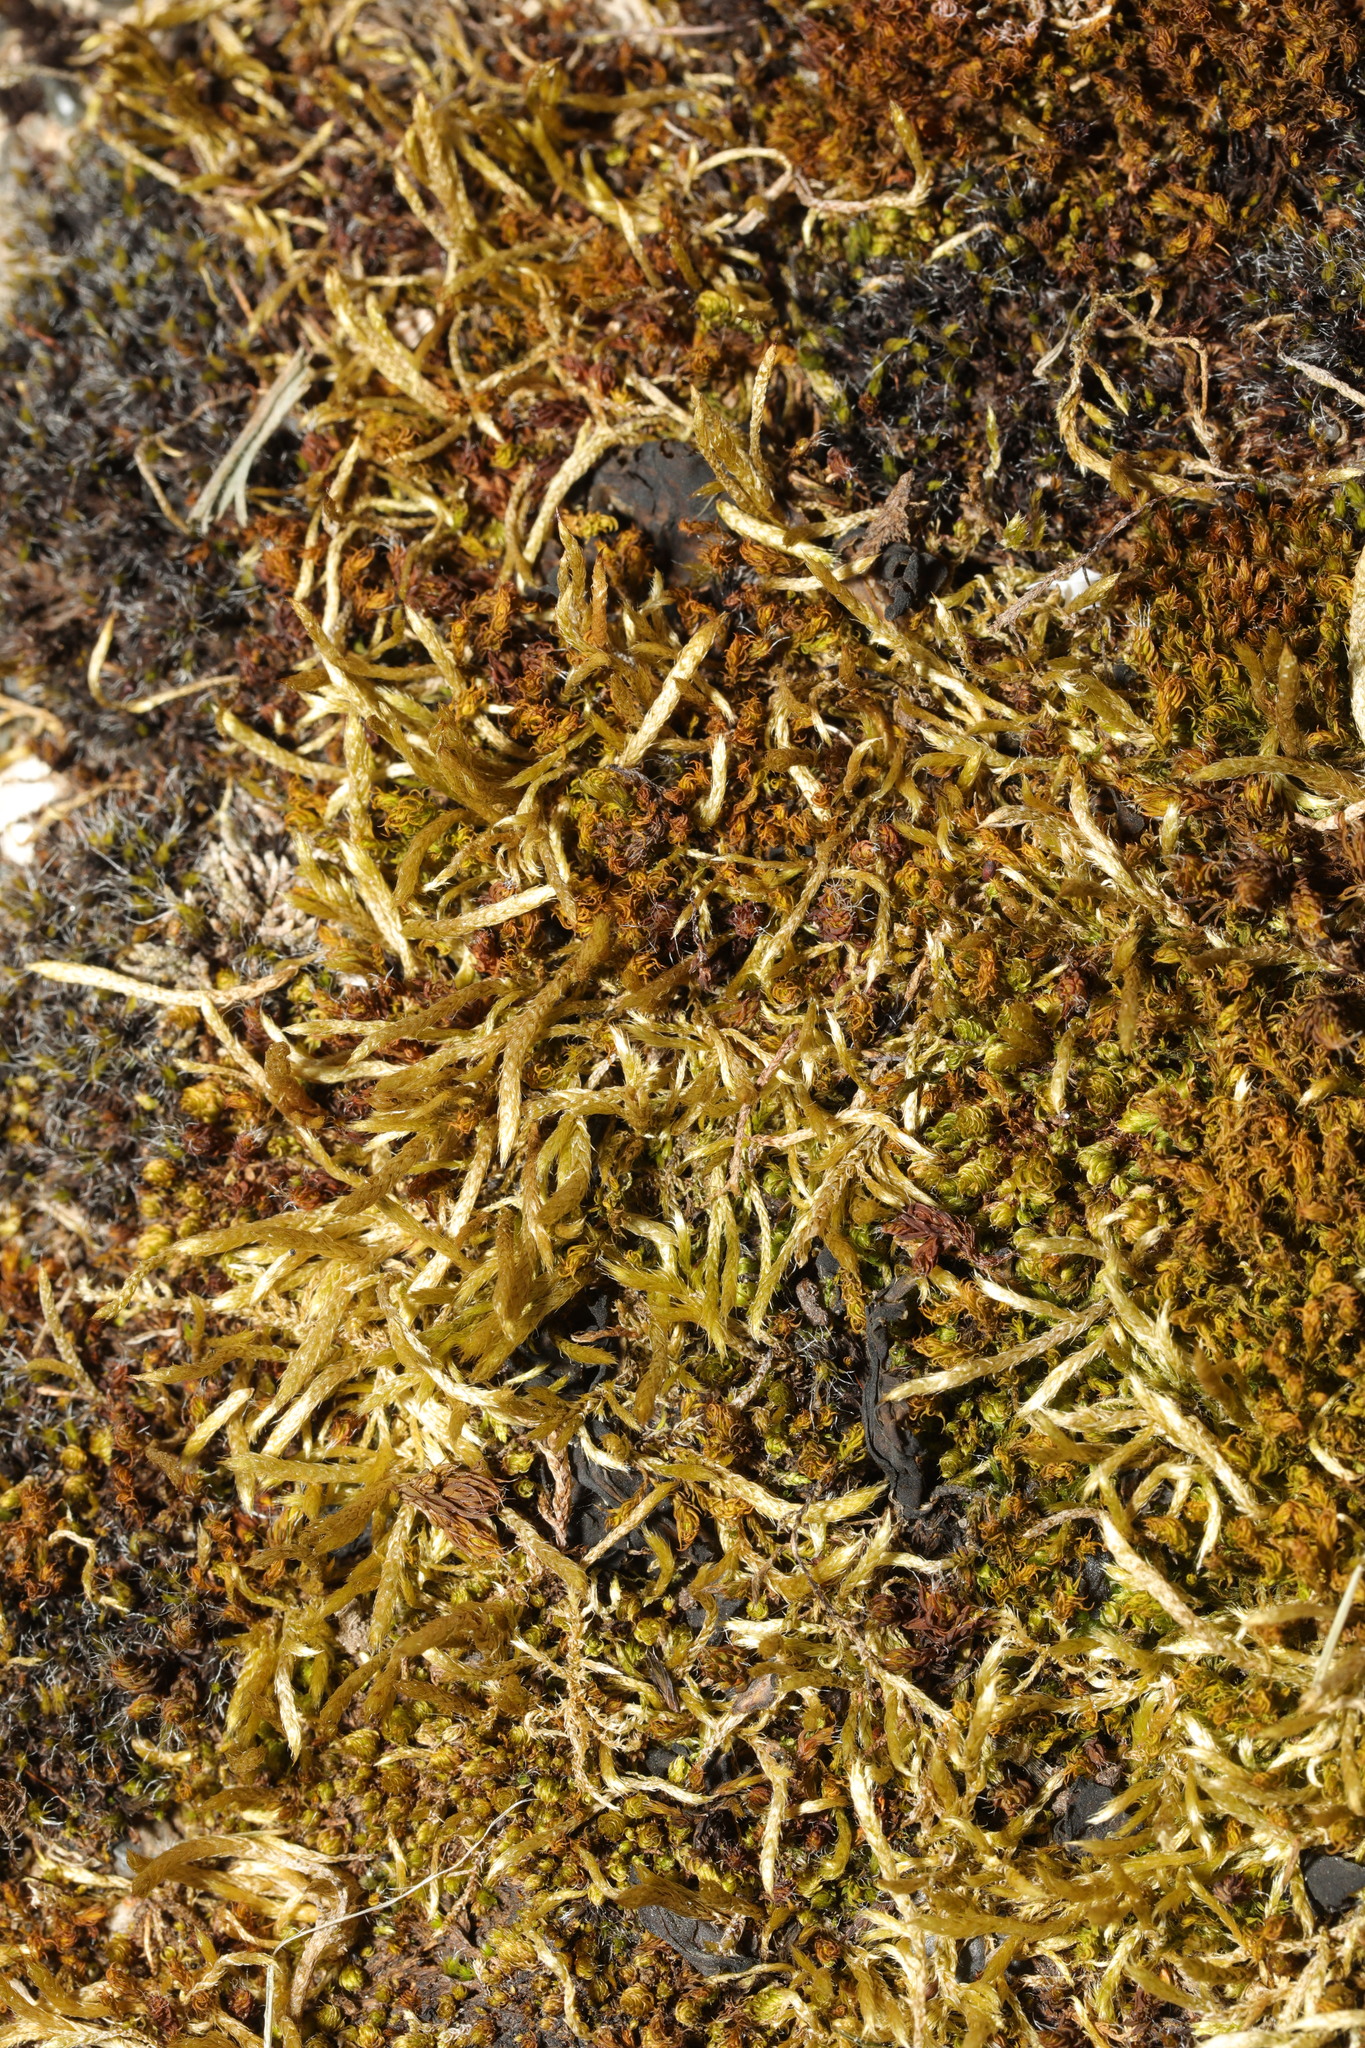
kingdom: Plantae
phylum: Bryophyta
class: Bryopsida
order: Hypnales
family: Brachytheciaceae
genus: Homalothecium
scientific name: Homalothecium lutescens
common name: Yellow feather-moss
